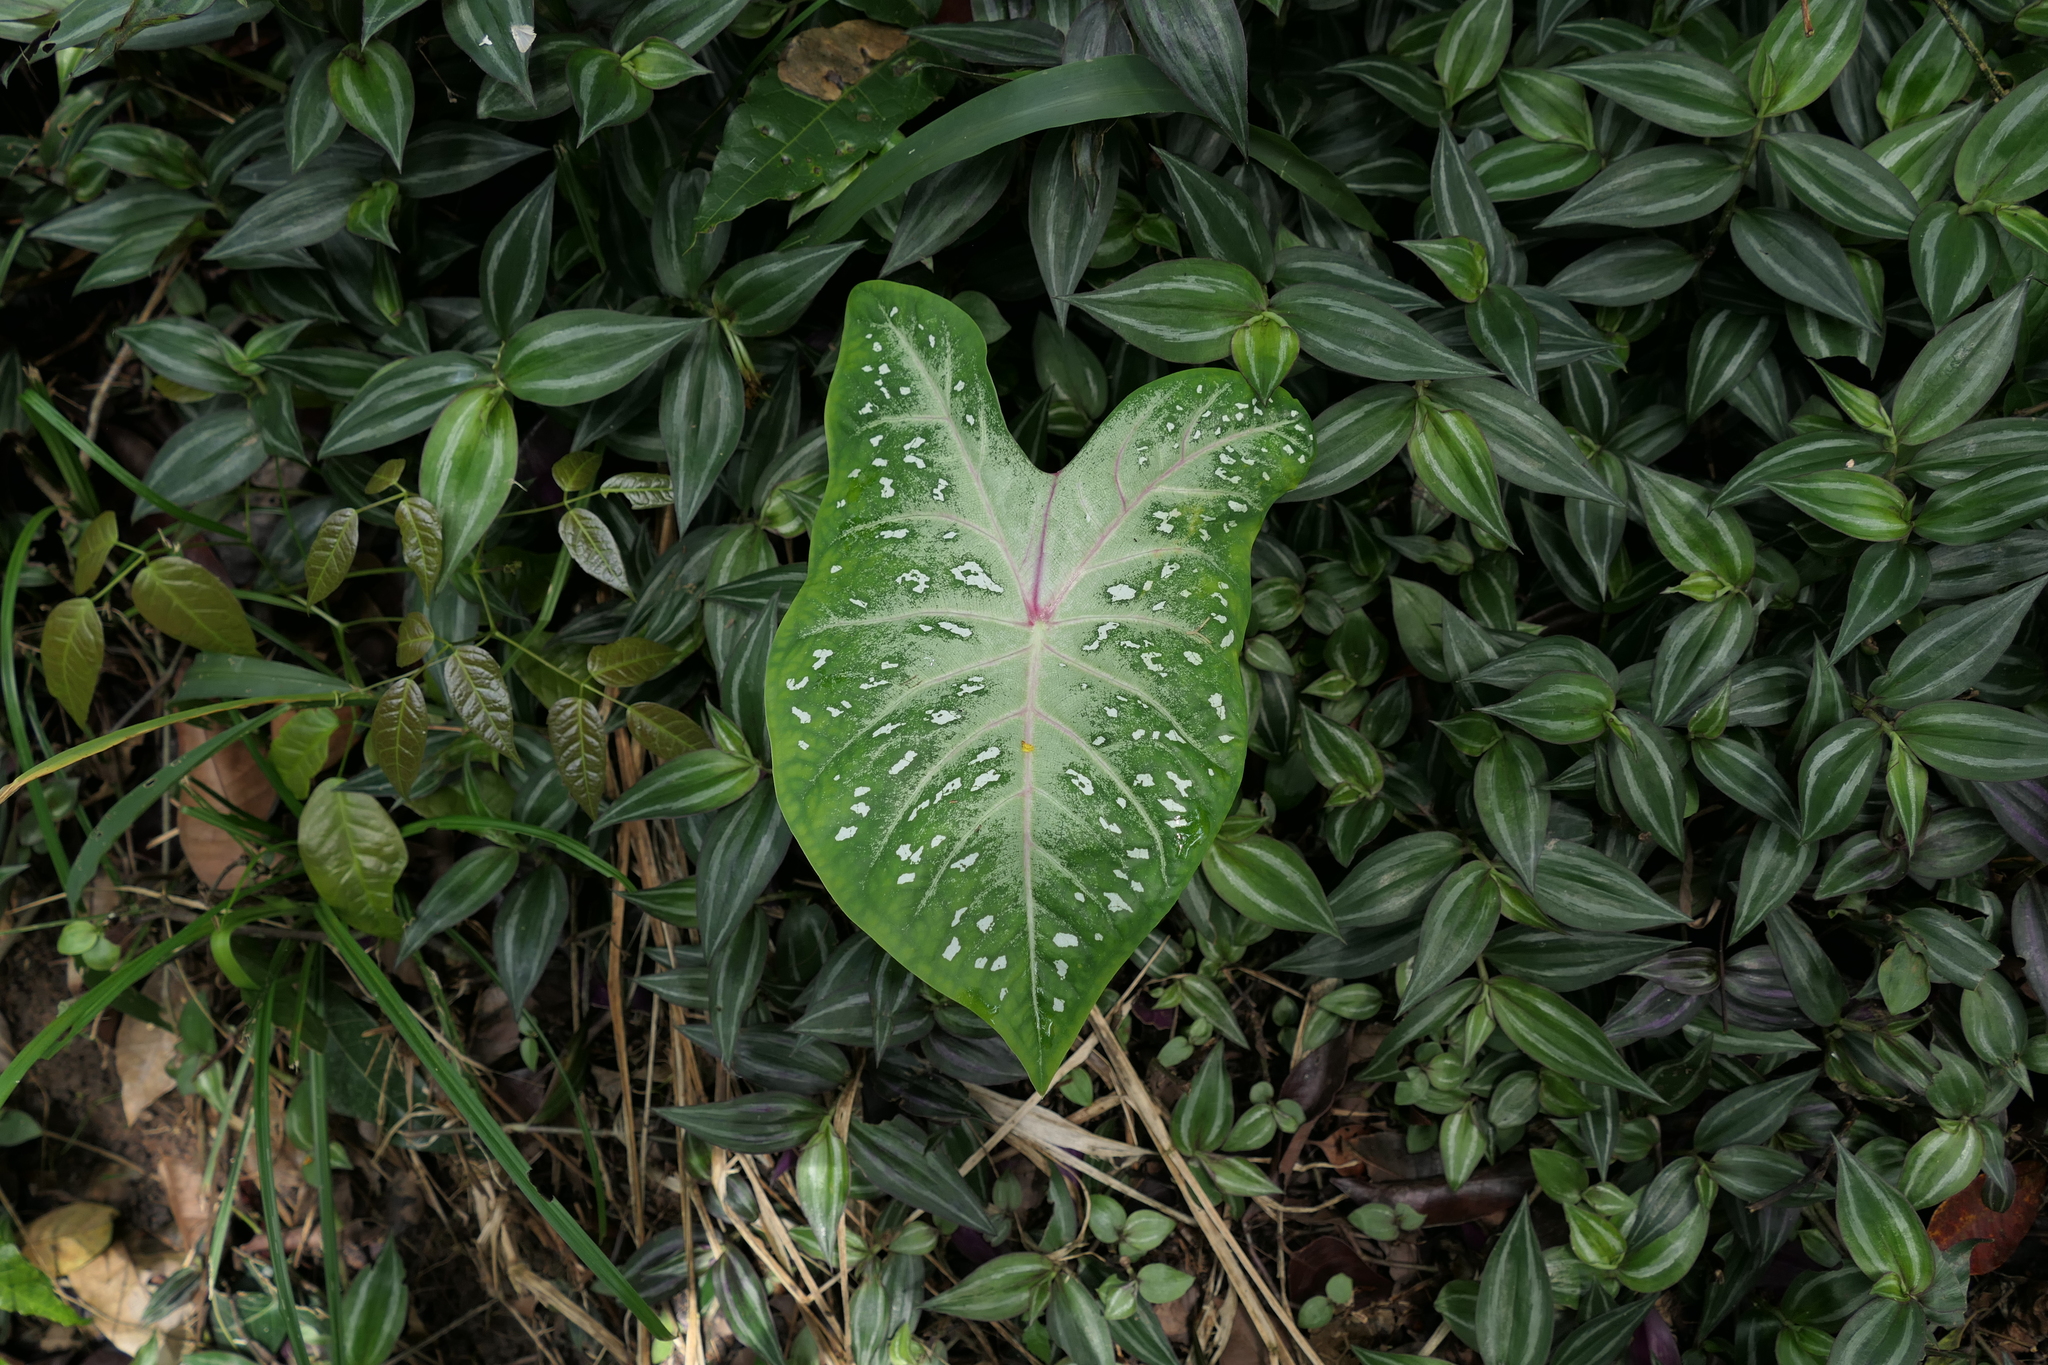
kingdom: Plantae
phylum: Tracheophyta
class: Liliopsida
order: Alismatales
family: Araceae
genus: Caladium
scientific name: Caladium bicolor
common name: Artist's pallet
